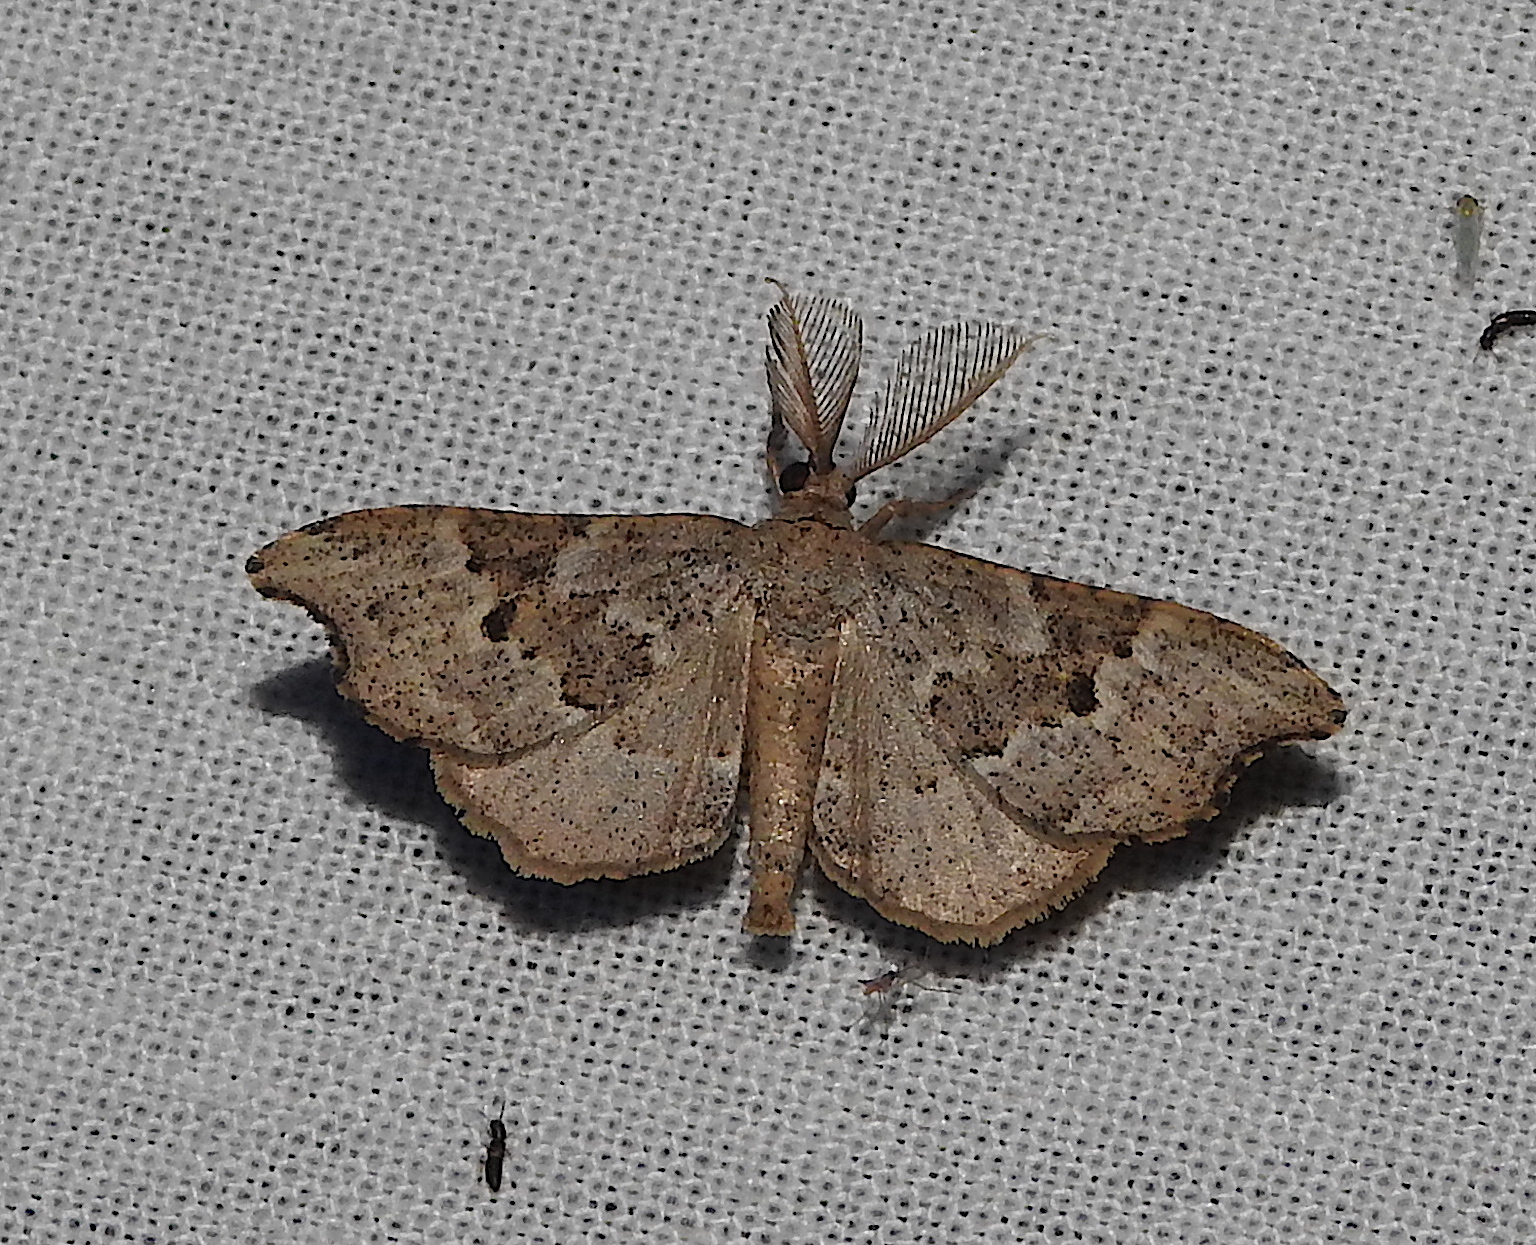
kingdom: Animalia
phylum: Arthropoda
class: Insecta
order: Lepidoptera
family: Geometridae
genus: Hyposidra
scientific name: Hyposidra polia
